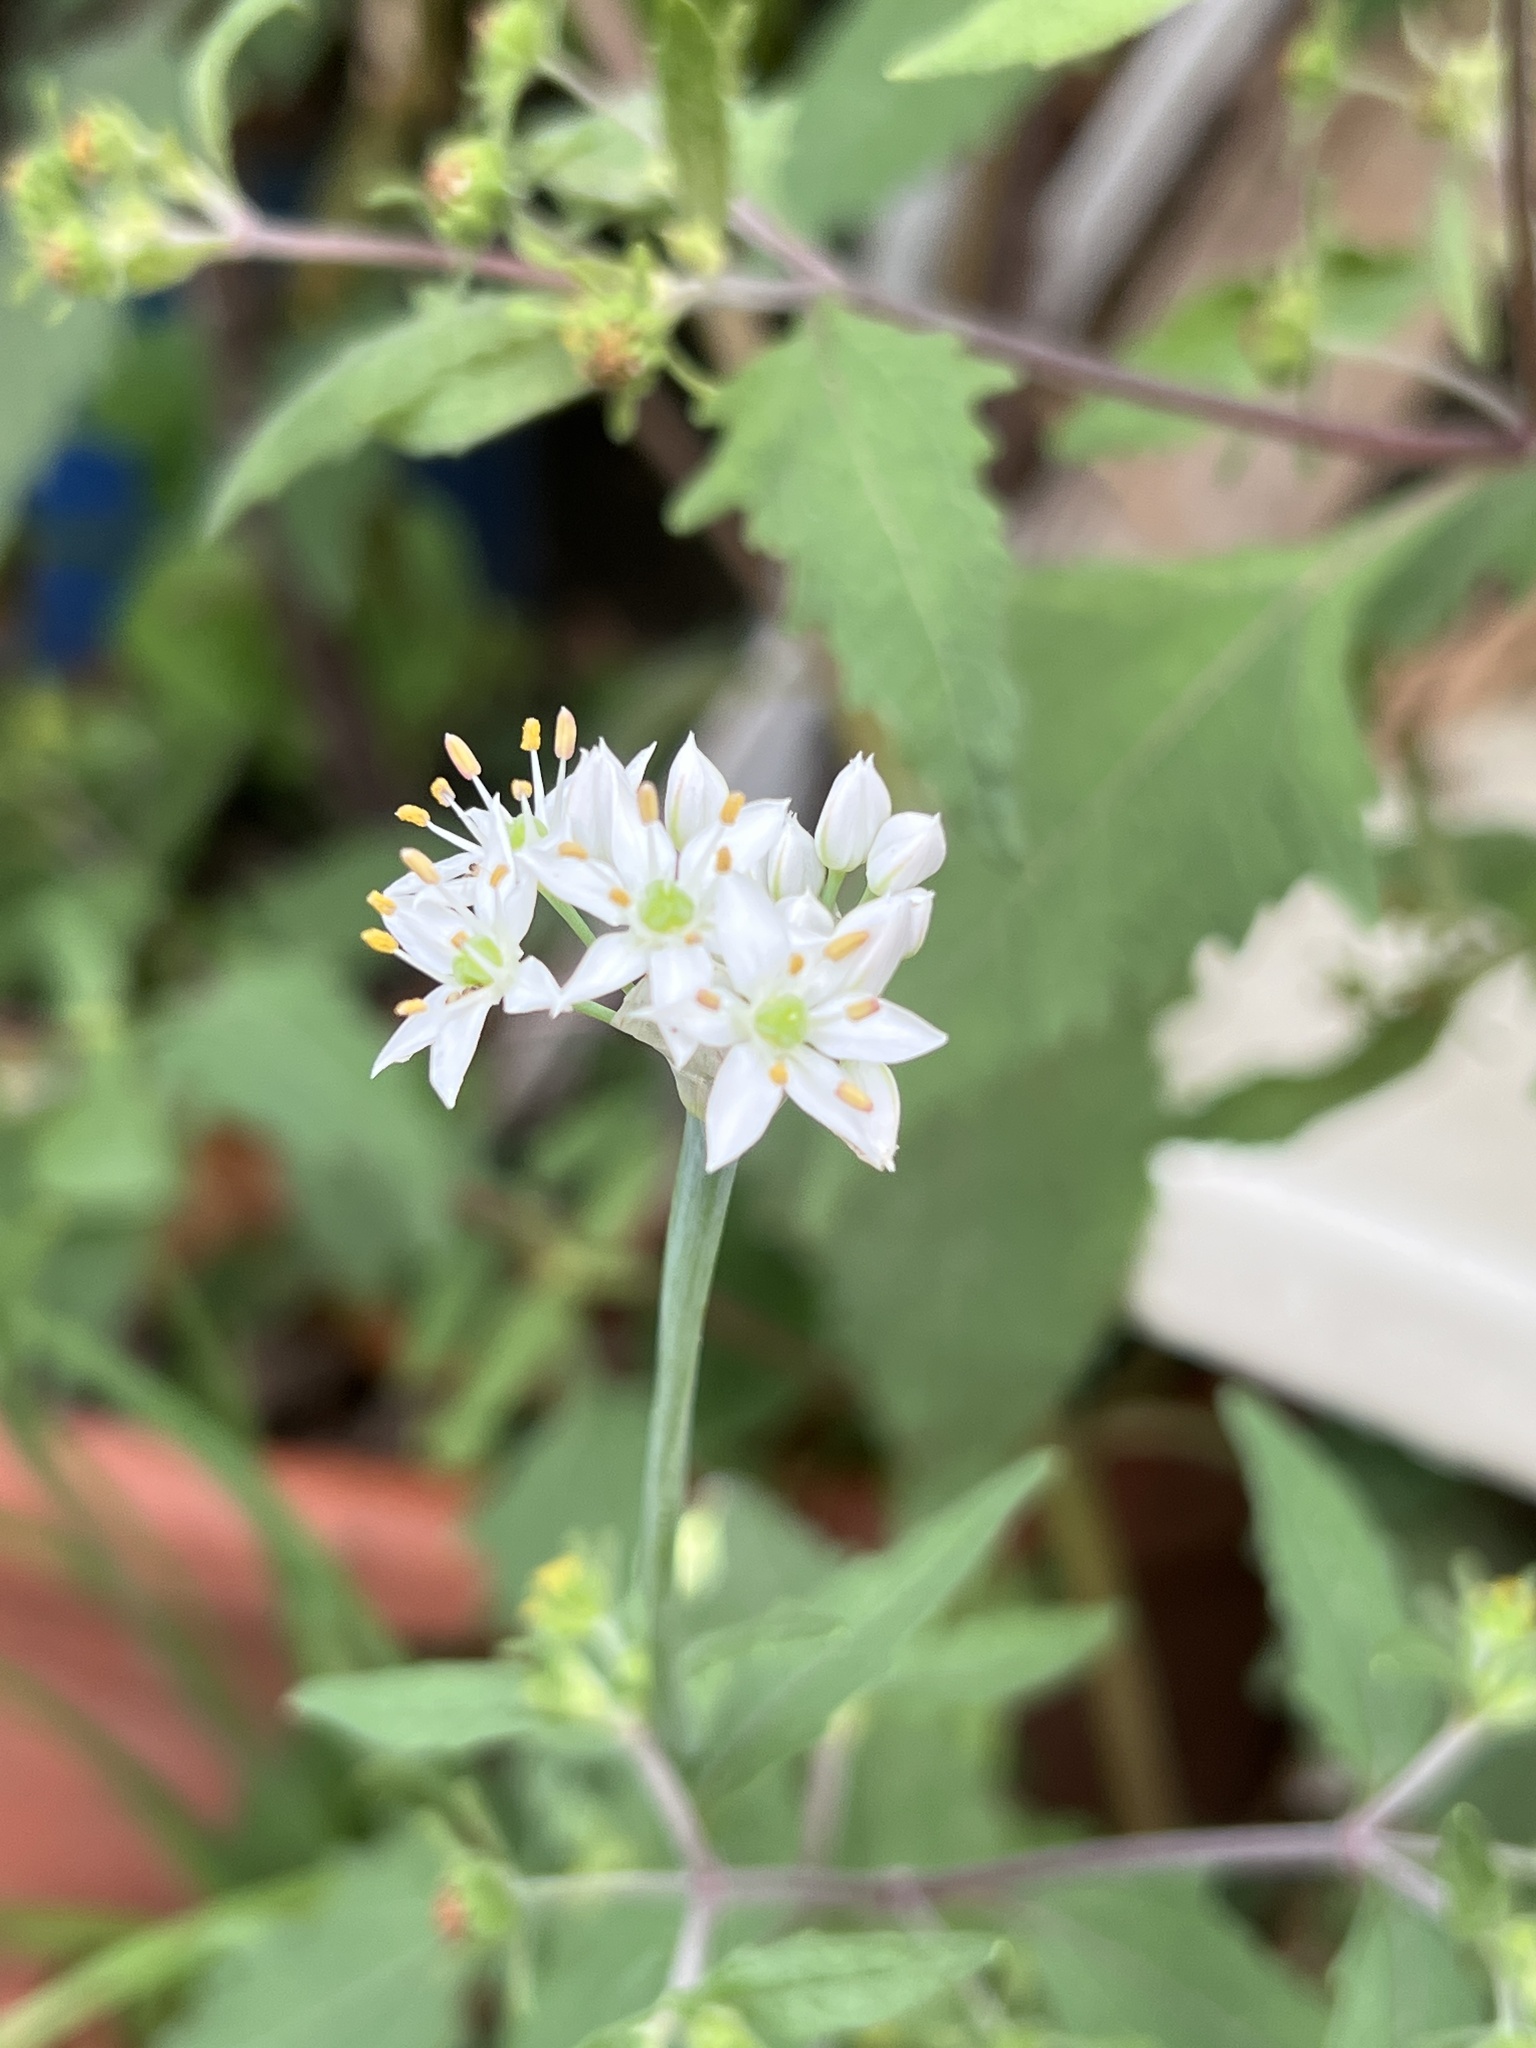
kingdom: Plantae
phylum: Tracheophyta
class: Magnoliopsida
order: Asterales
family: Asteraceae
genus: Sigesbeckia
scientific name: Sigesbeckia orientalis
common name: Eastern st paul's-wort
